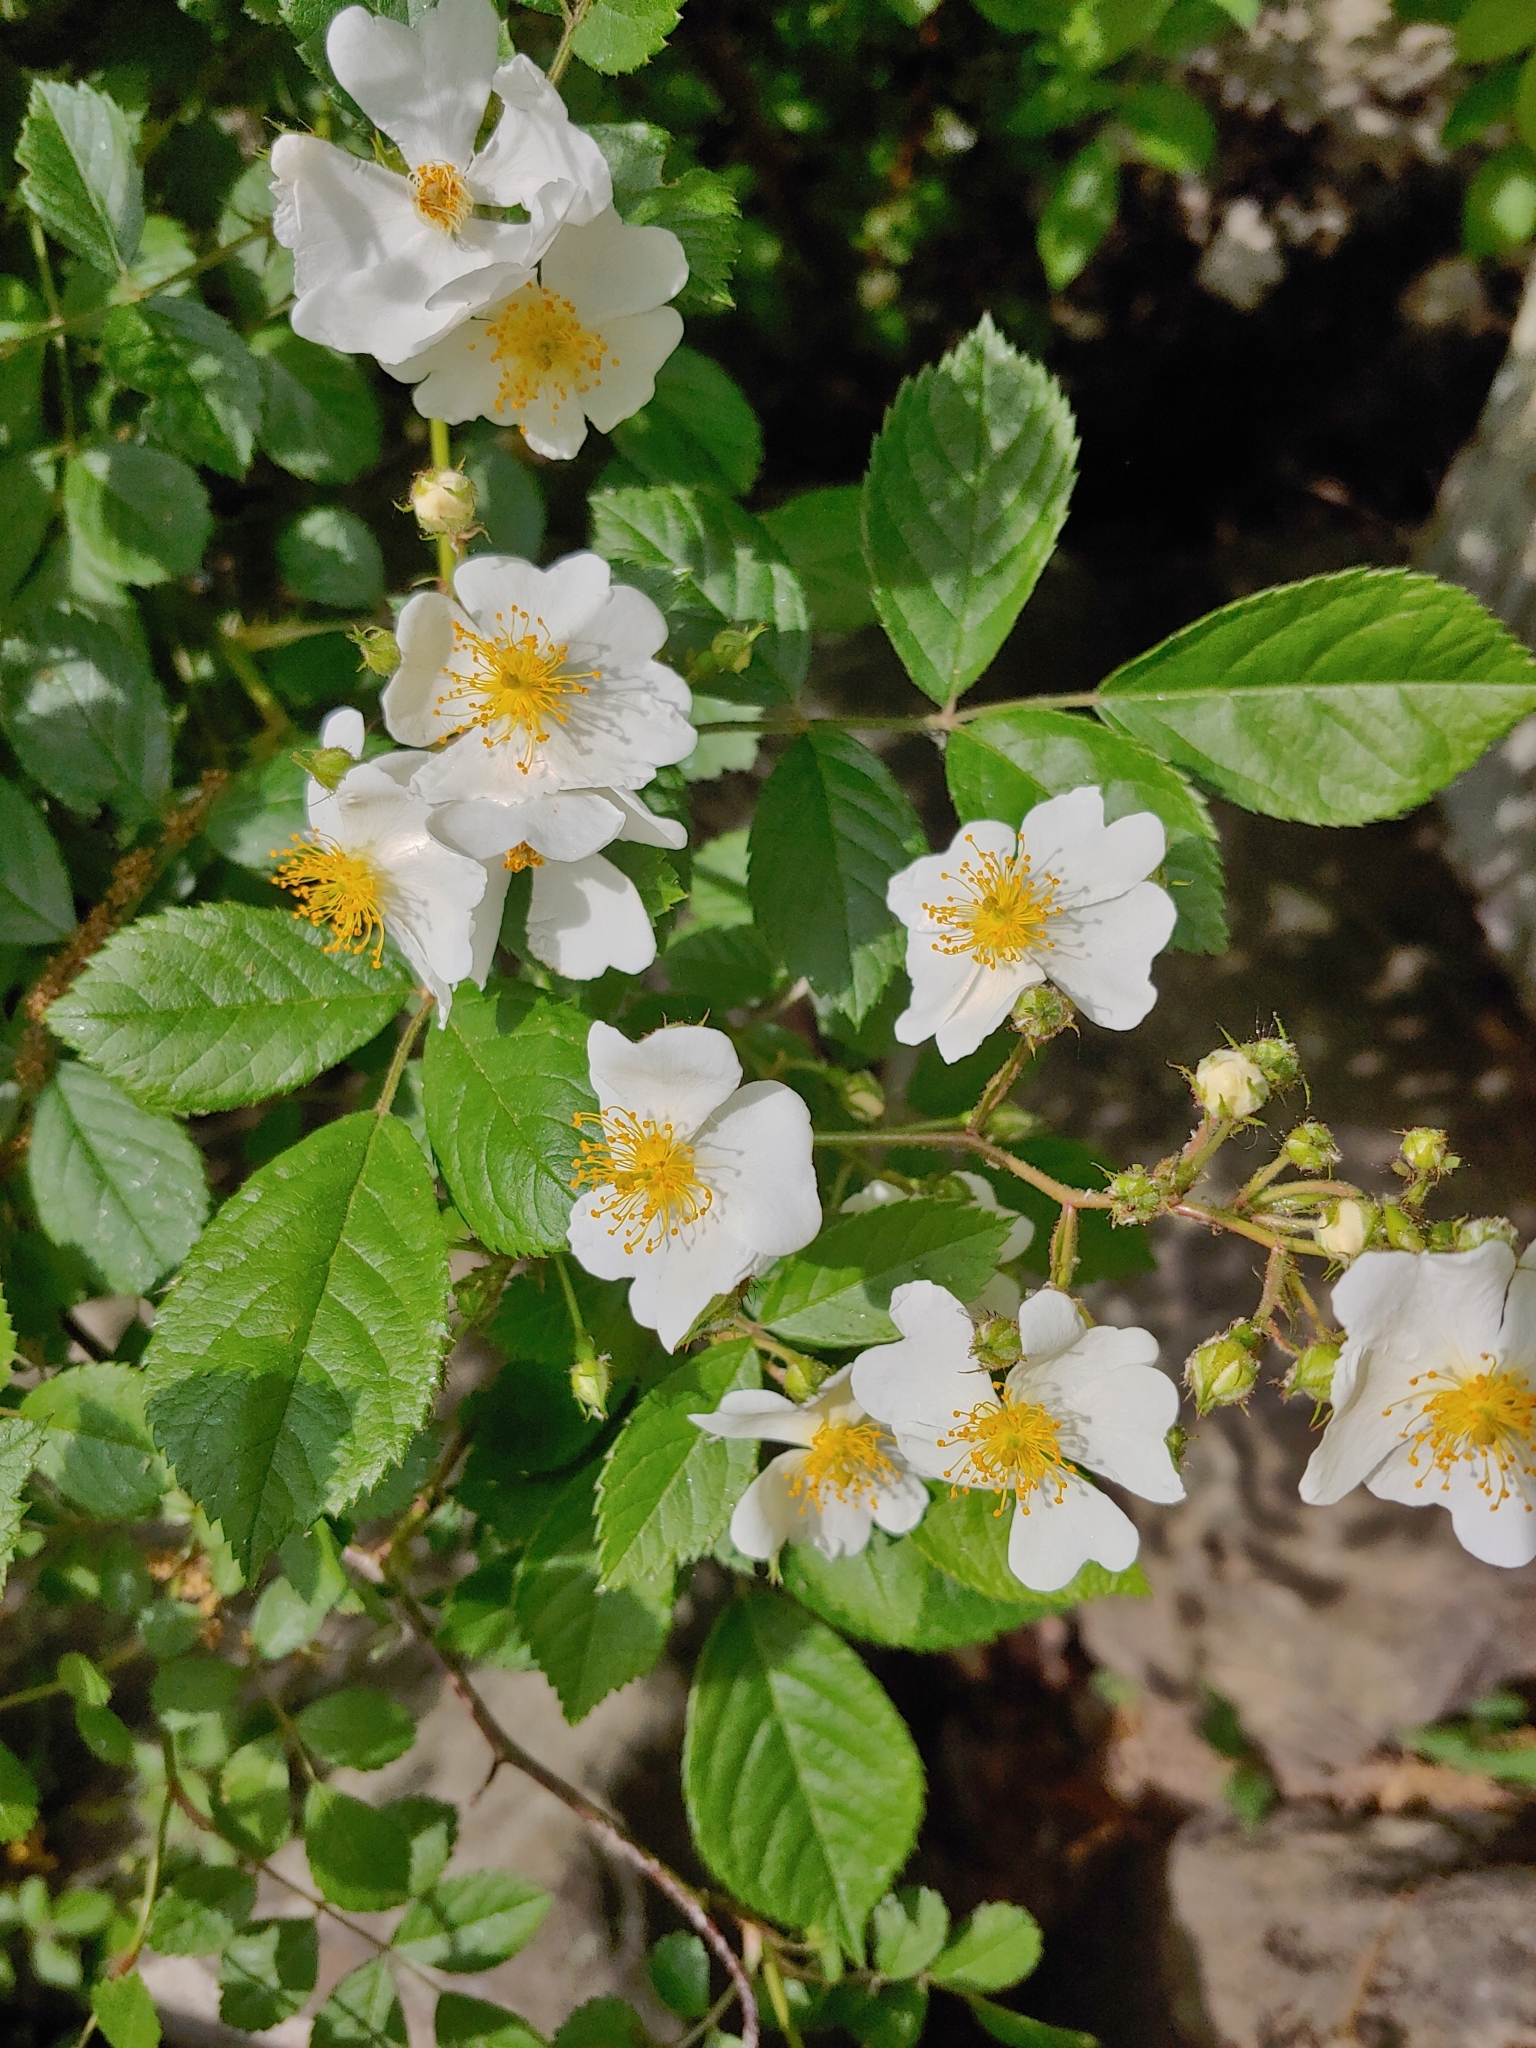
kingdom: Plantae
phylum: Tracheophyta
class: Magnoliopsida
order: Rosales
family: Rosaceae
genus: Rosa
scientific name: Rosa multiflora
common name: Multiflora rose
